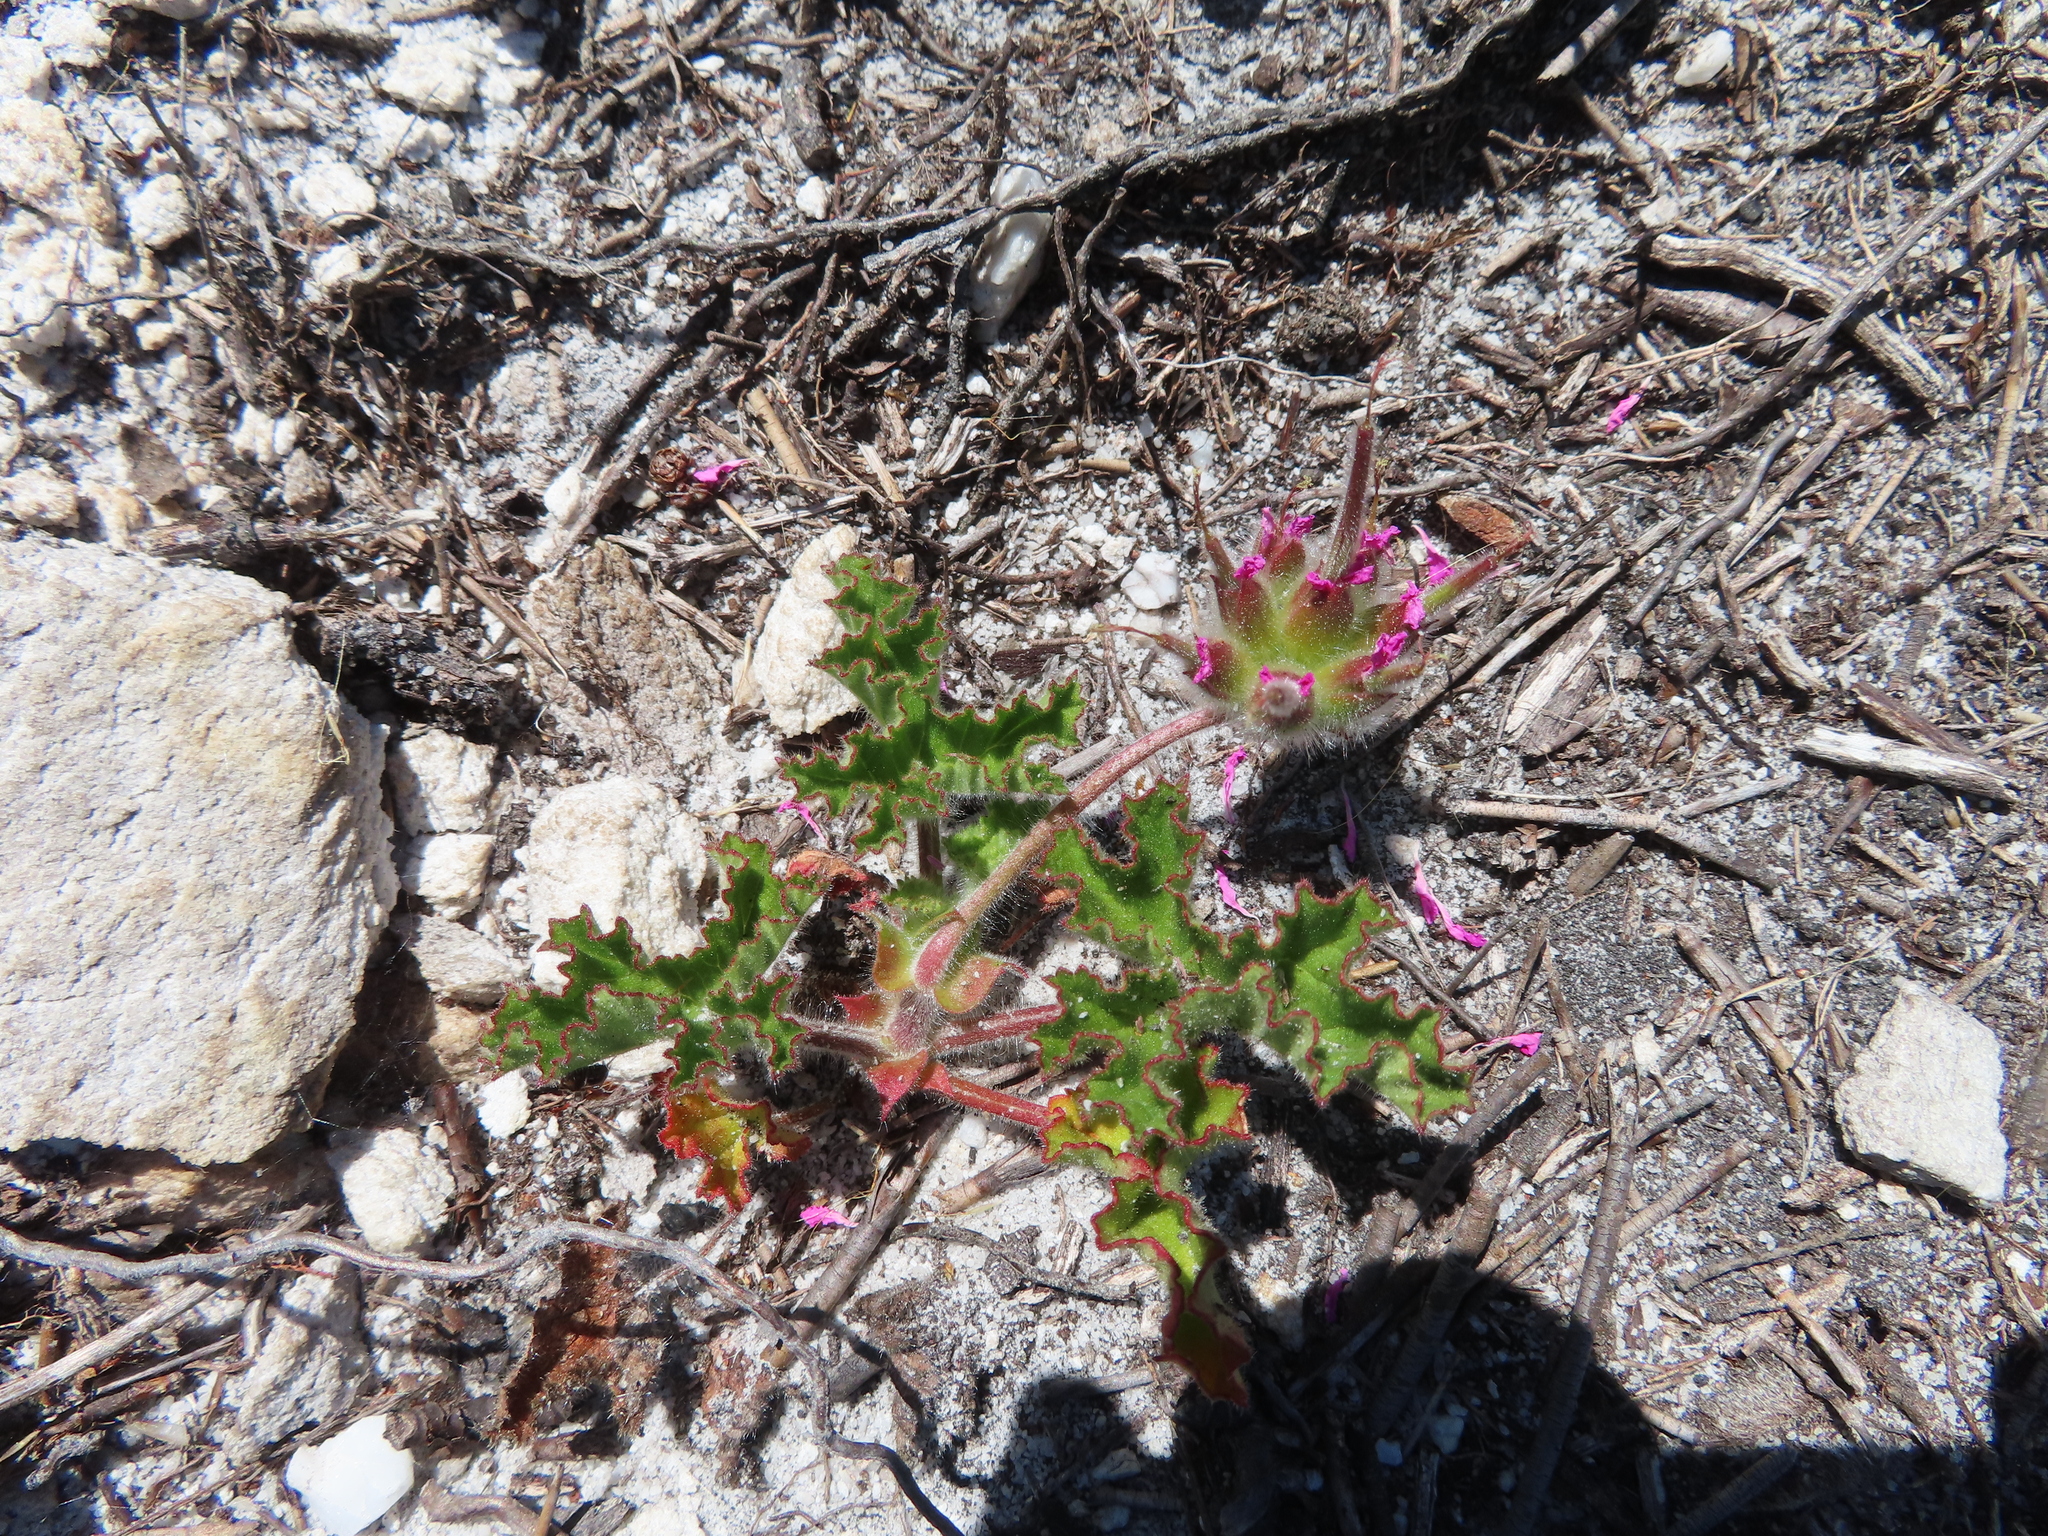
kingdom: Plantae
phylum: Tracheophyta
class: Magnoliopsida
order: Geraniales
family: Geraniaceae
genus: Pelargonium
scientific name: Pelargonium capitatum
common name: Rose scented geranium
